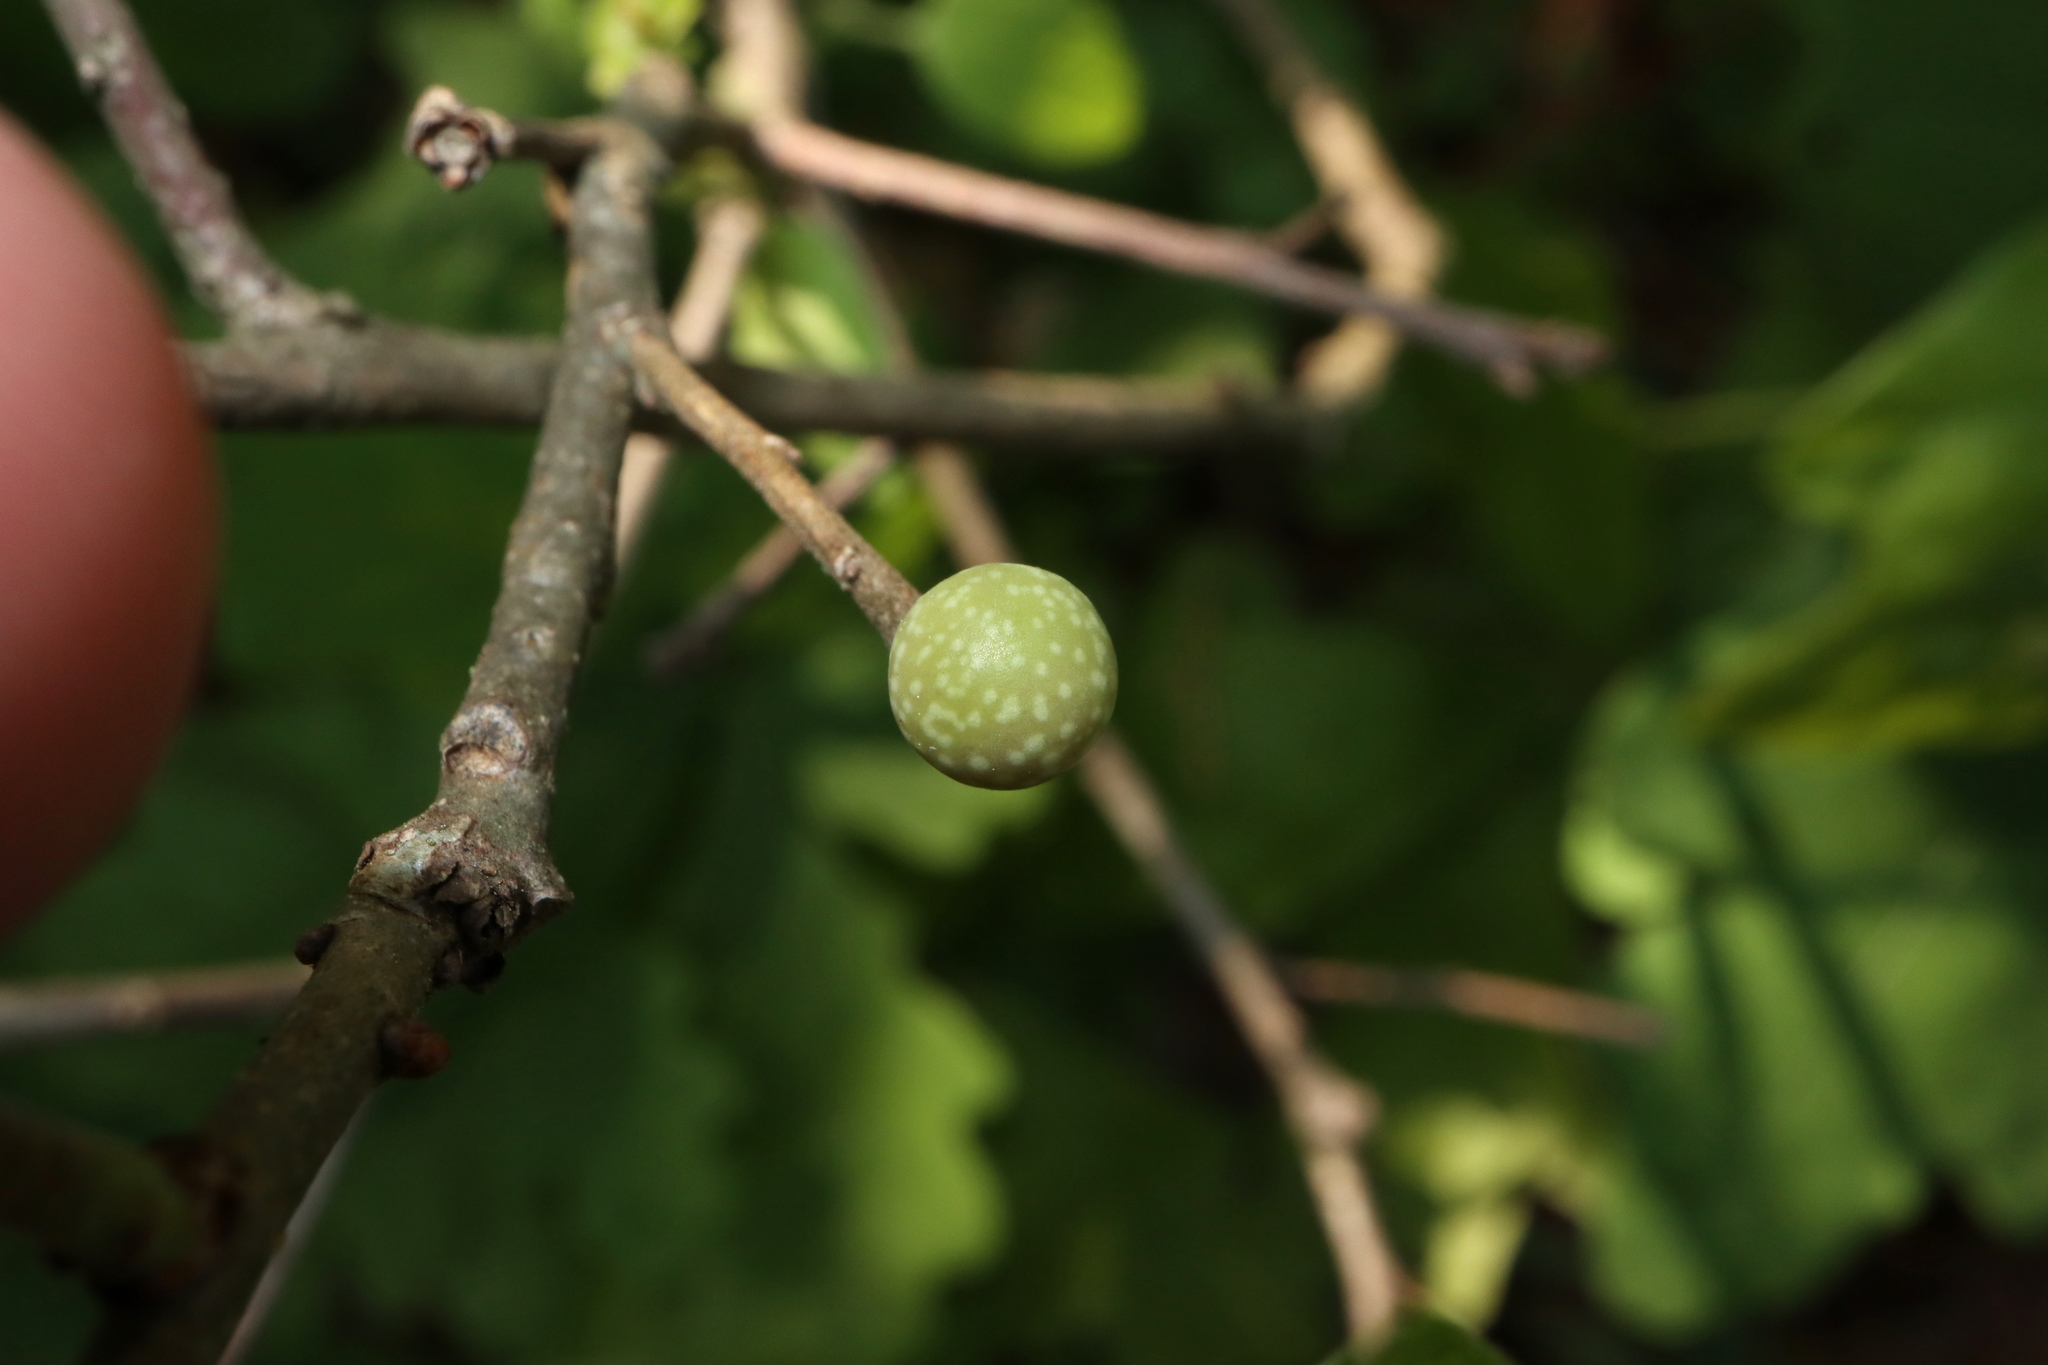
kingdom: Animalia
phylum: Arthropoda
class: Insecta
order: Hymenoptera
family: Cynipidae
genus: Andricus
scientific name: Andricus
